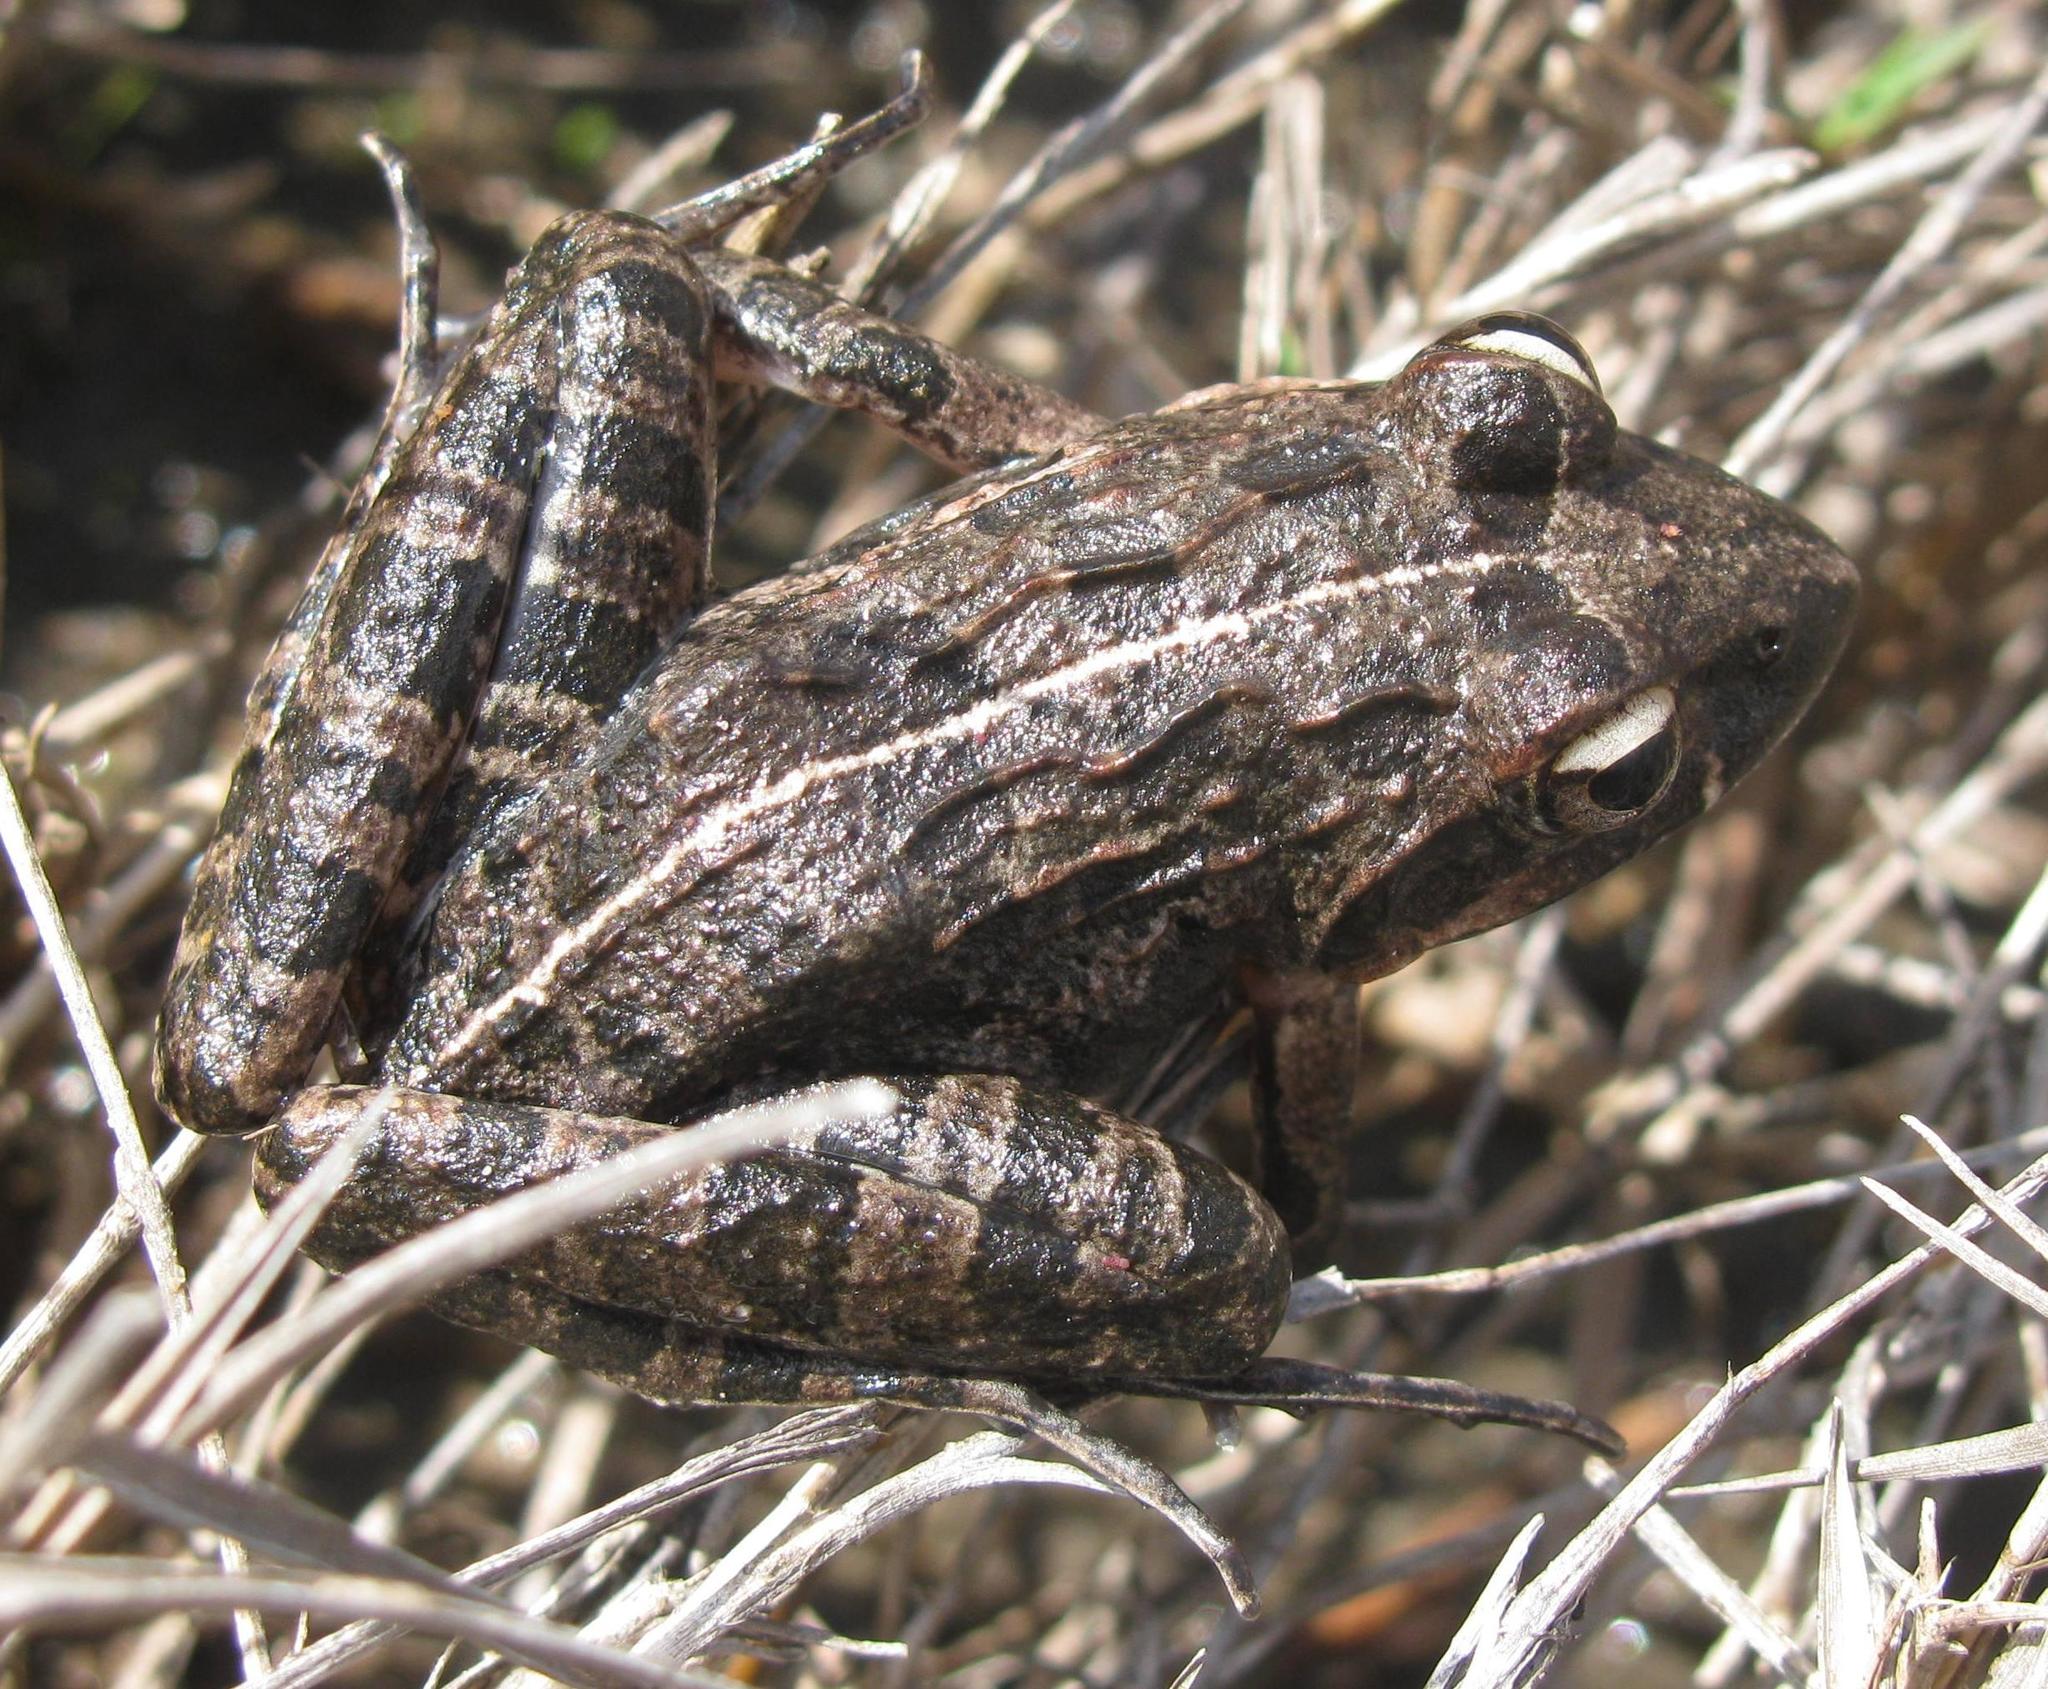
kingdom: Animalia
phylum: Chordata
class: Amphibia
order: Anura
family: Pyxicephalidae
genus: Strongylopus
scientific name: Strongylopus grayii
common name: Gray's stream frog
